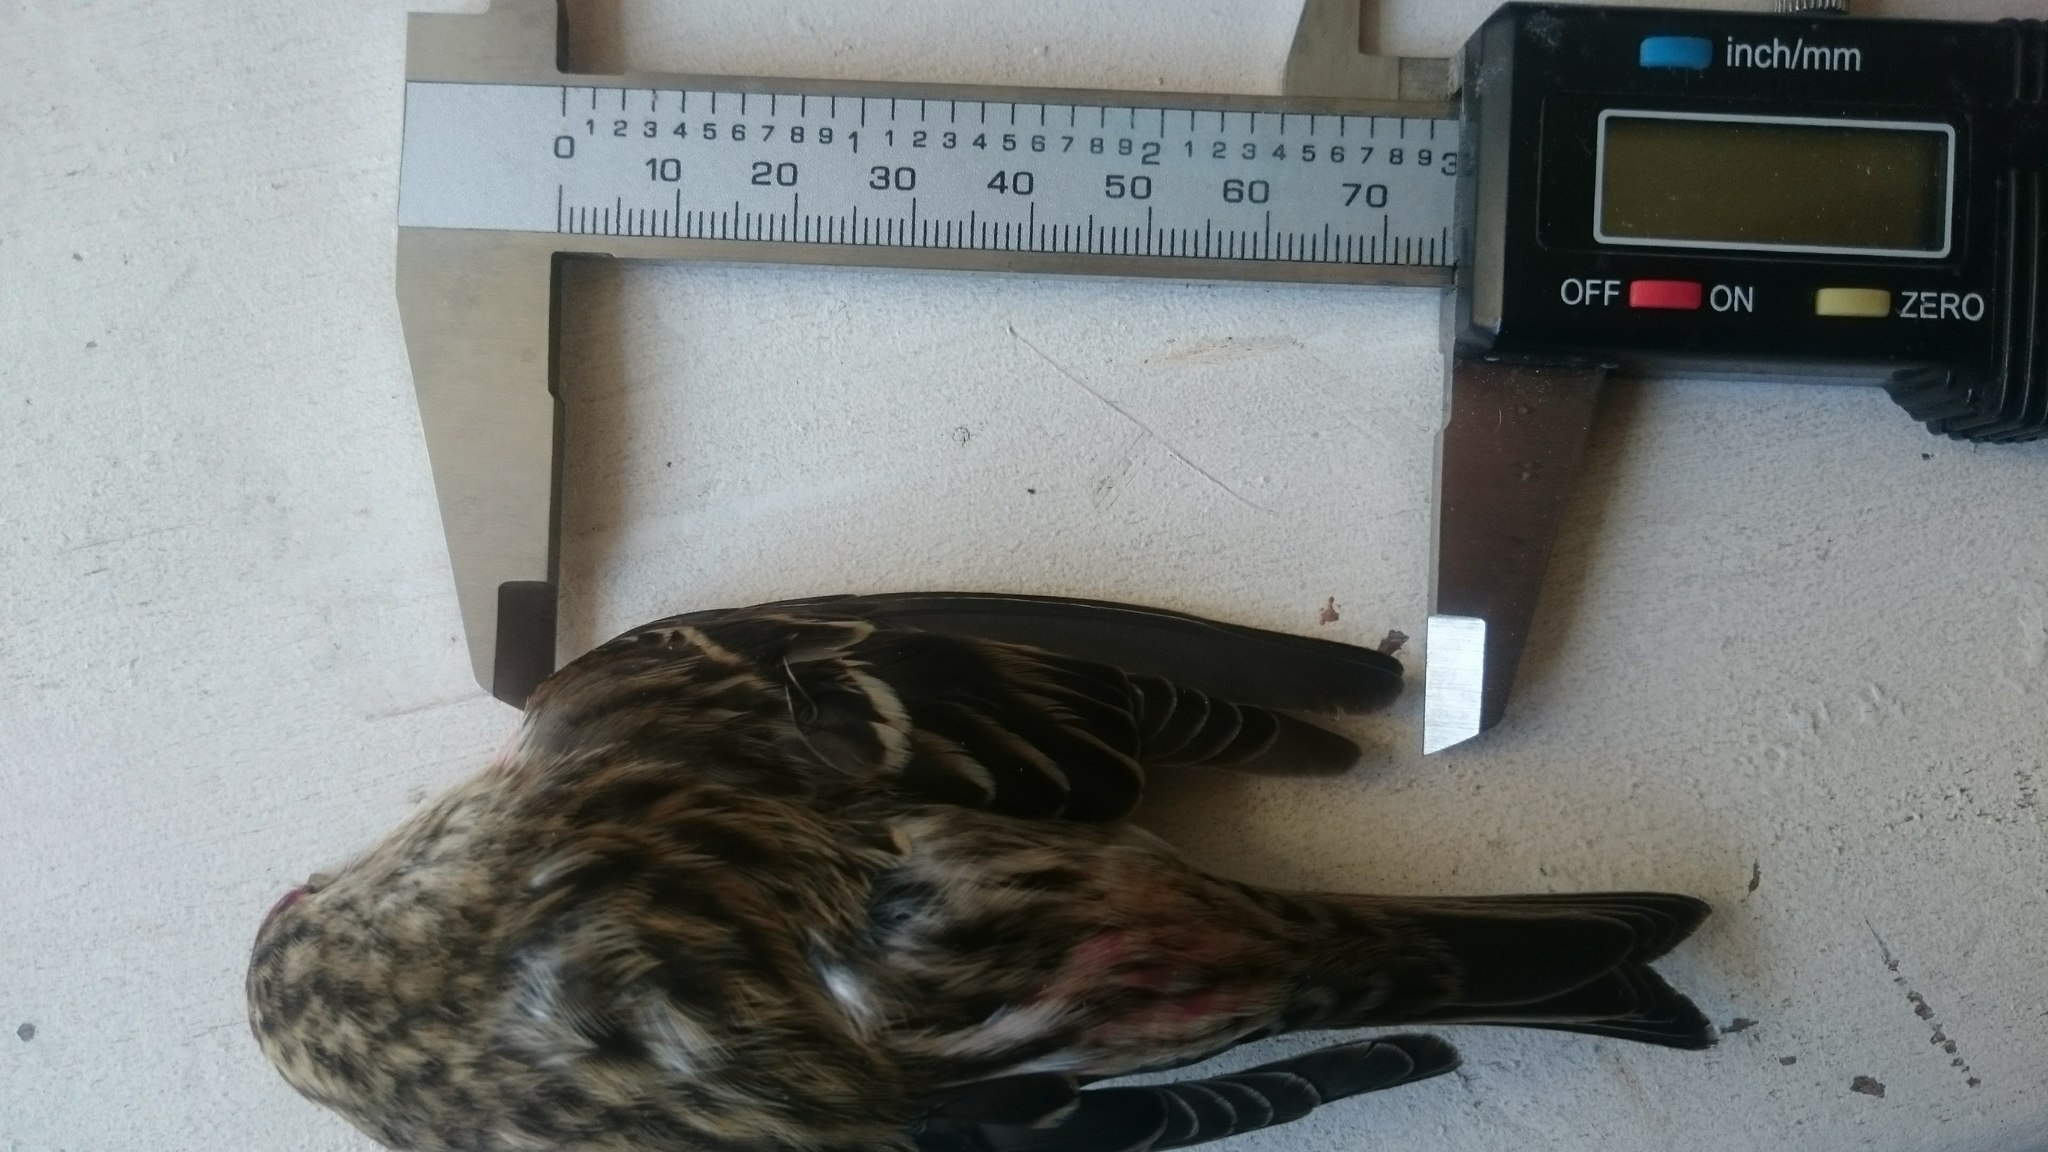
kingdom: Animalia
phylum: Chordata
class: Aves
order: Passeriformes
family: Fringillidae
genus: Acanthis
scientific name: Acanthis flammea
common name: Common redpoll
